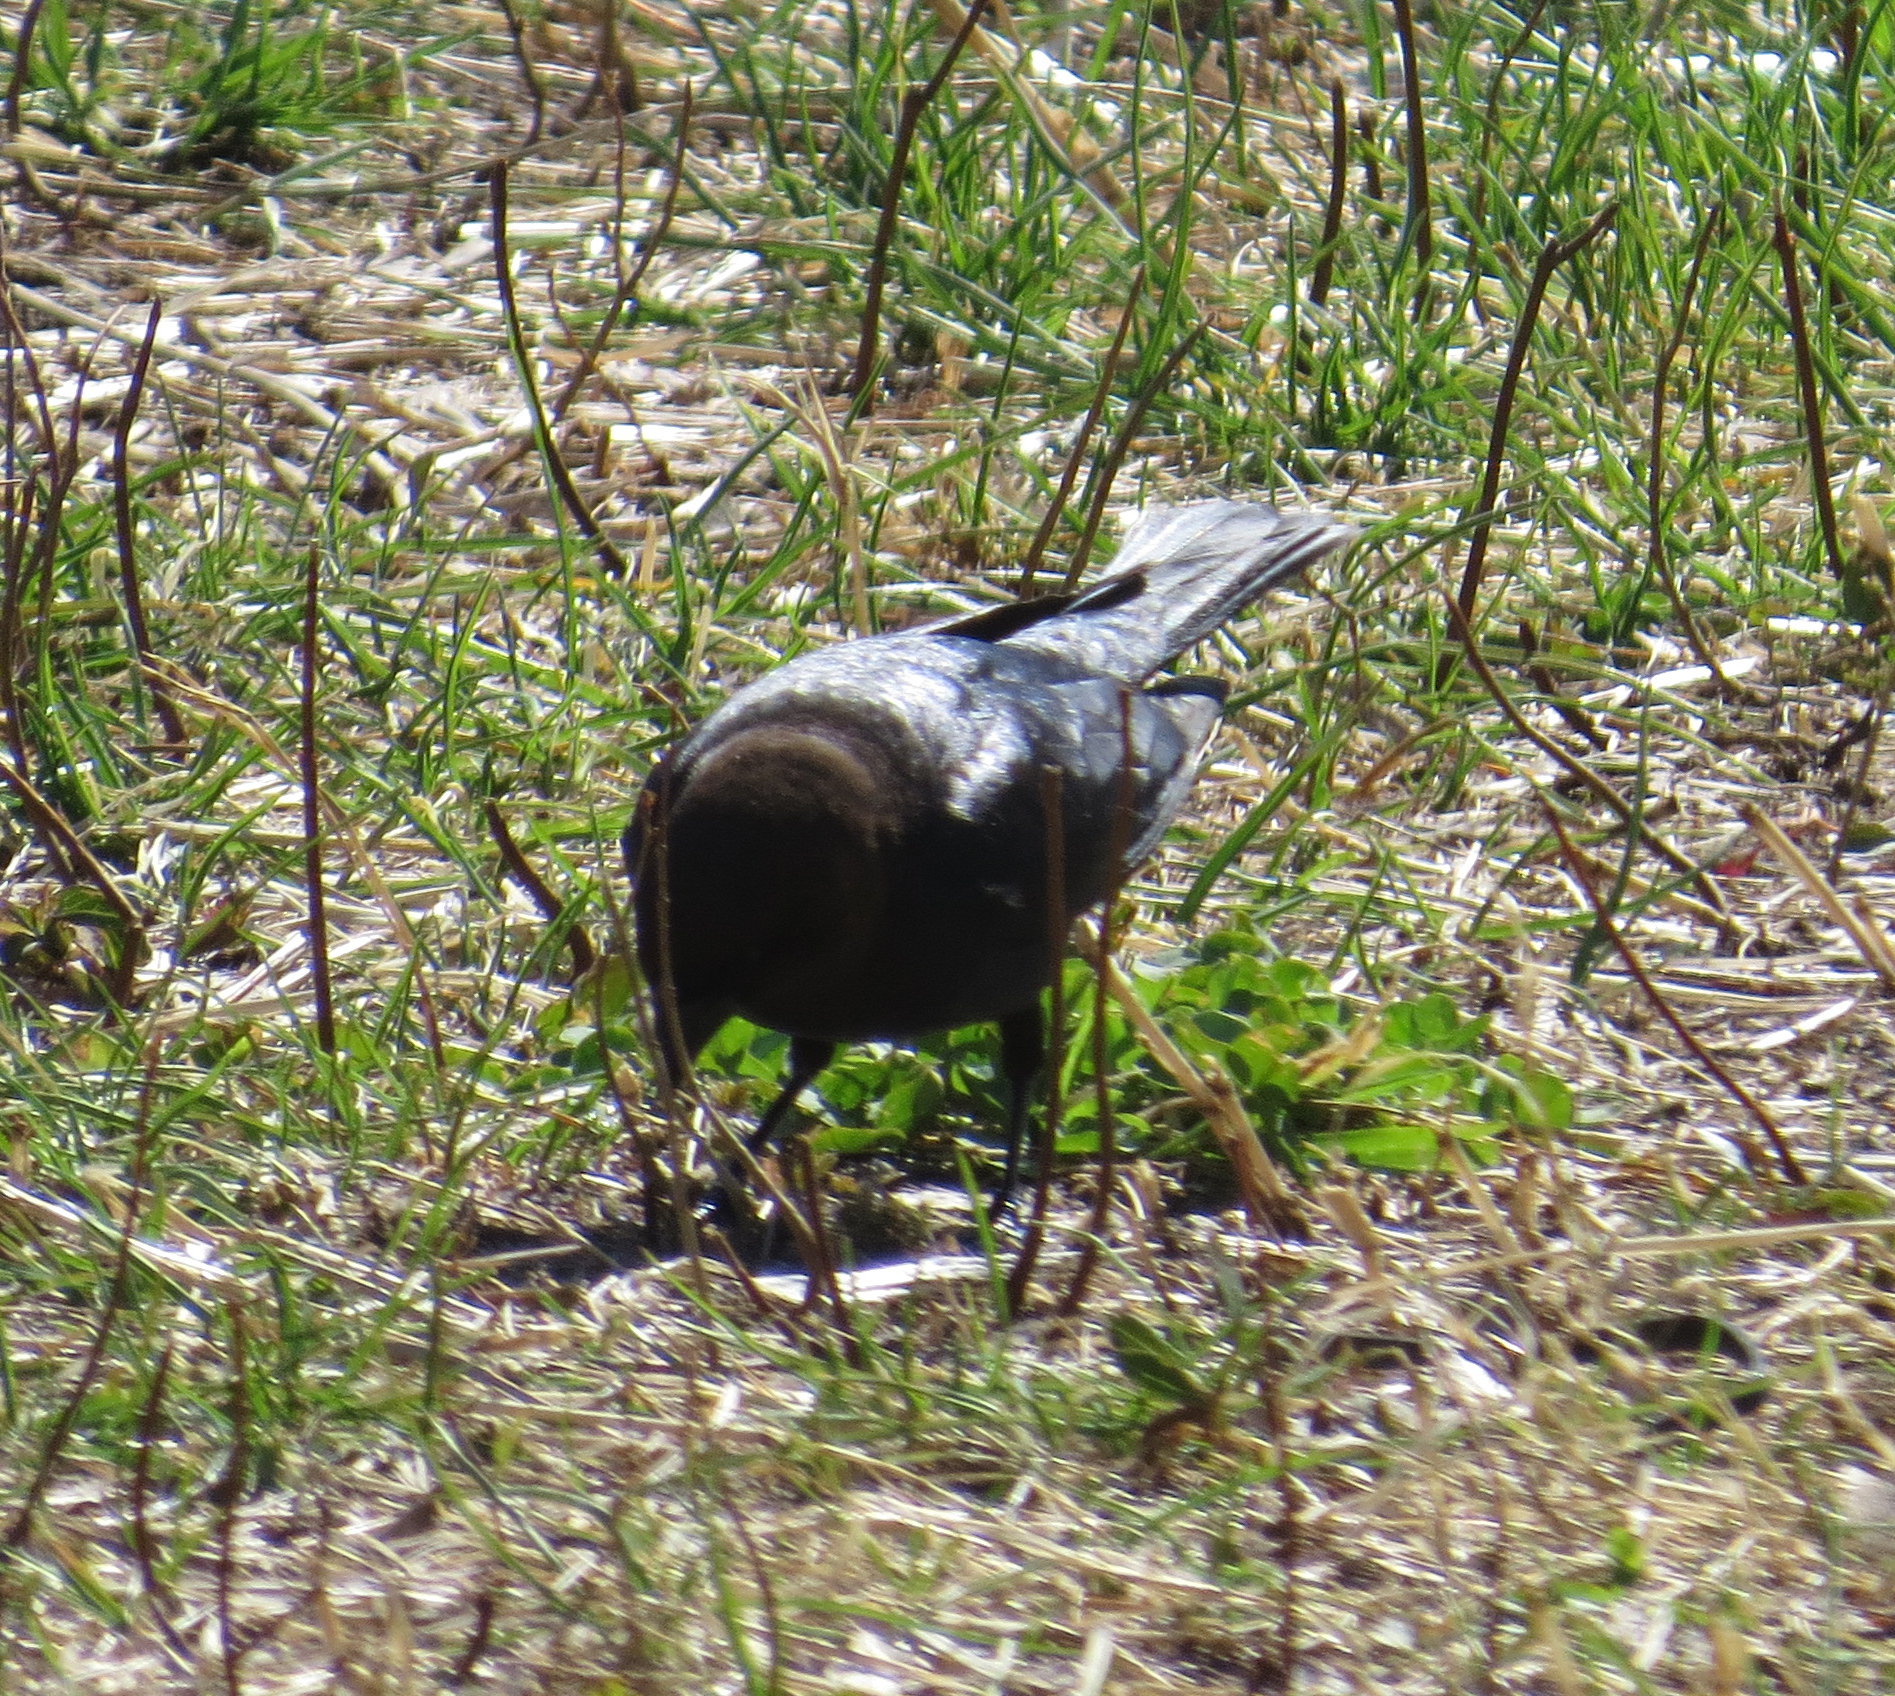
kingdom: Animalia
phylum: Chordata
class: Aves
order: Passeriformes
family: Icteridae
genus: Molothrus
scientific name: Molothrus ater
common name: Brown-headed cowbird
